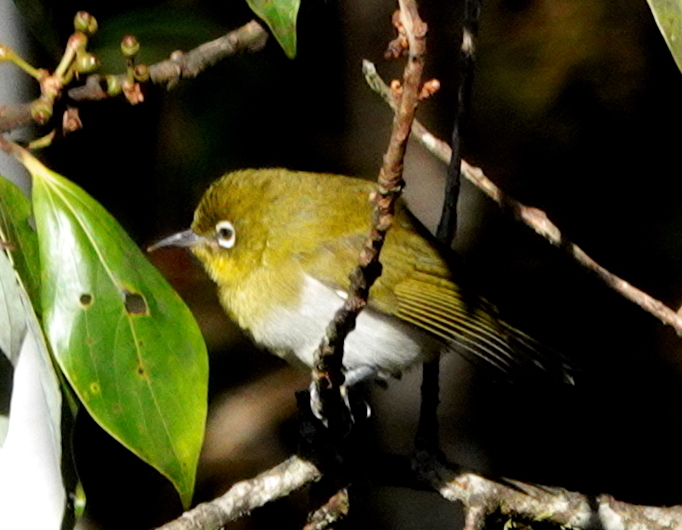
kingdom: Animalia
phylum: Chordata
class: Aves
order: Passeriformes
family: Zosteropidae
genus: Zosterops
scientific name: Zosterops ceylonensis
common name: Sri lanka white-eye
